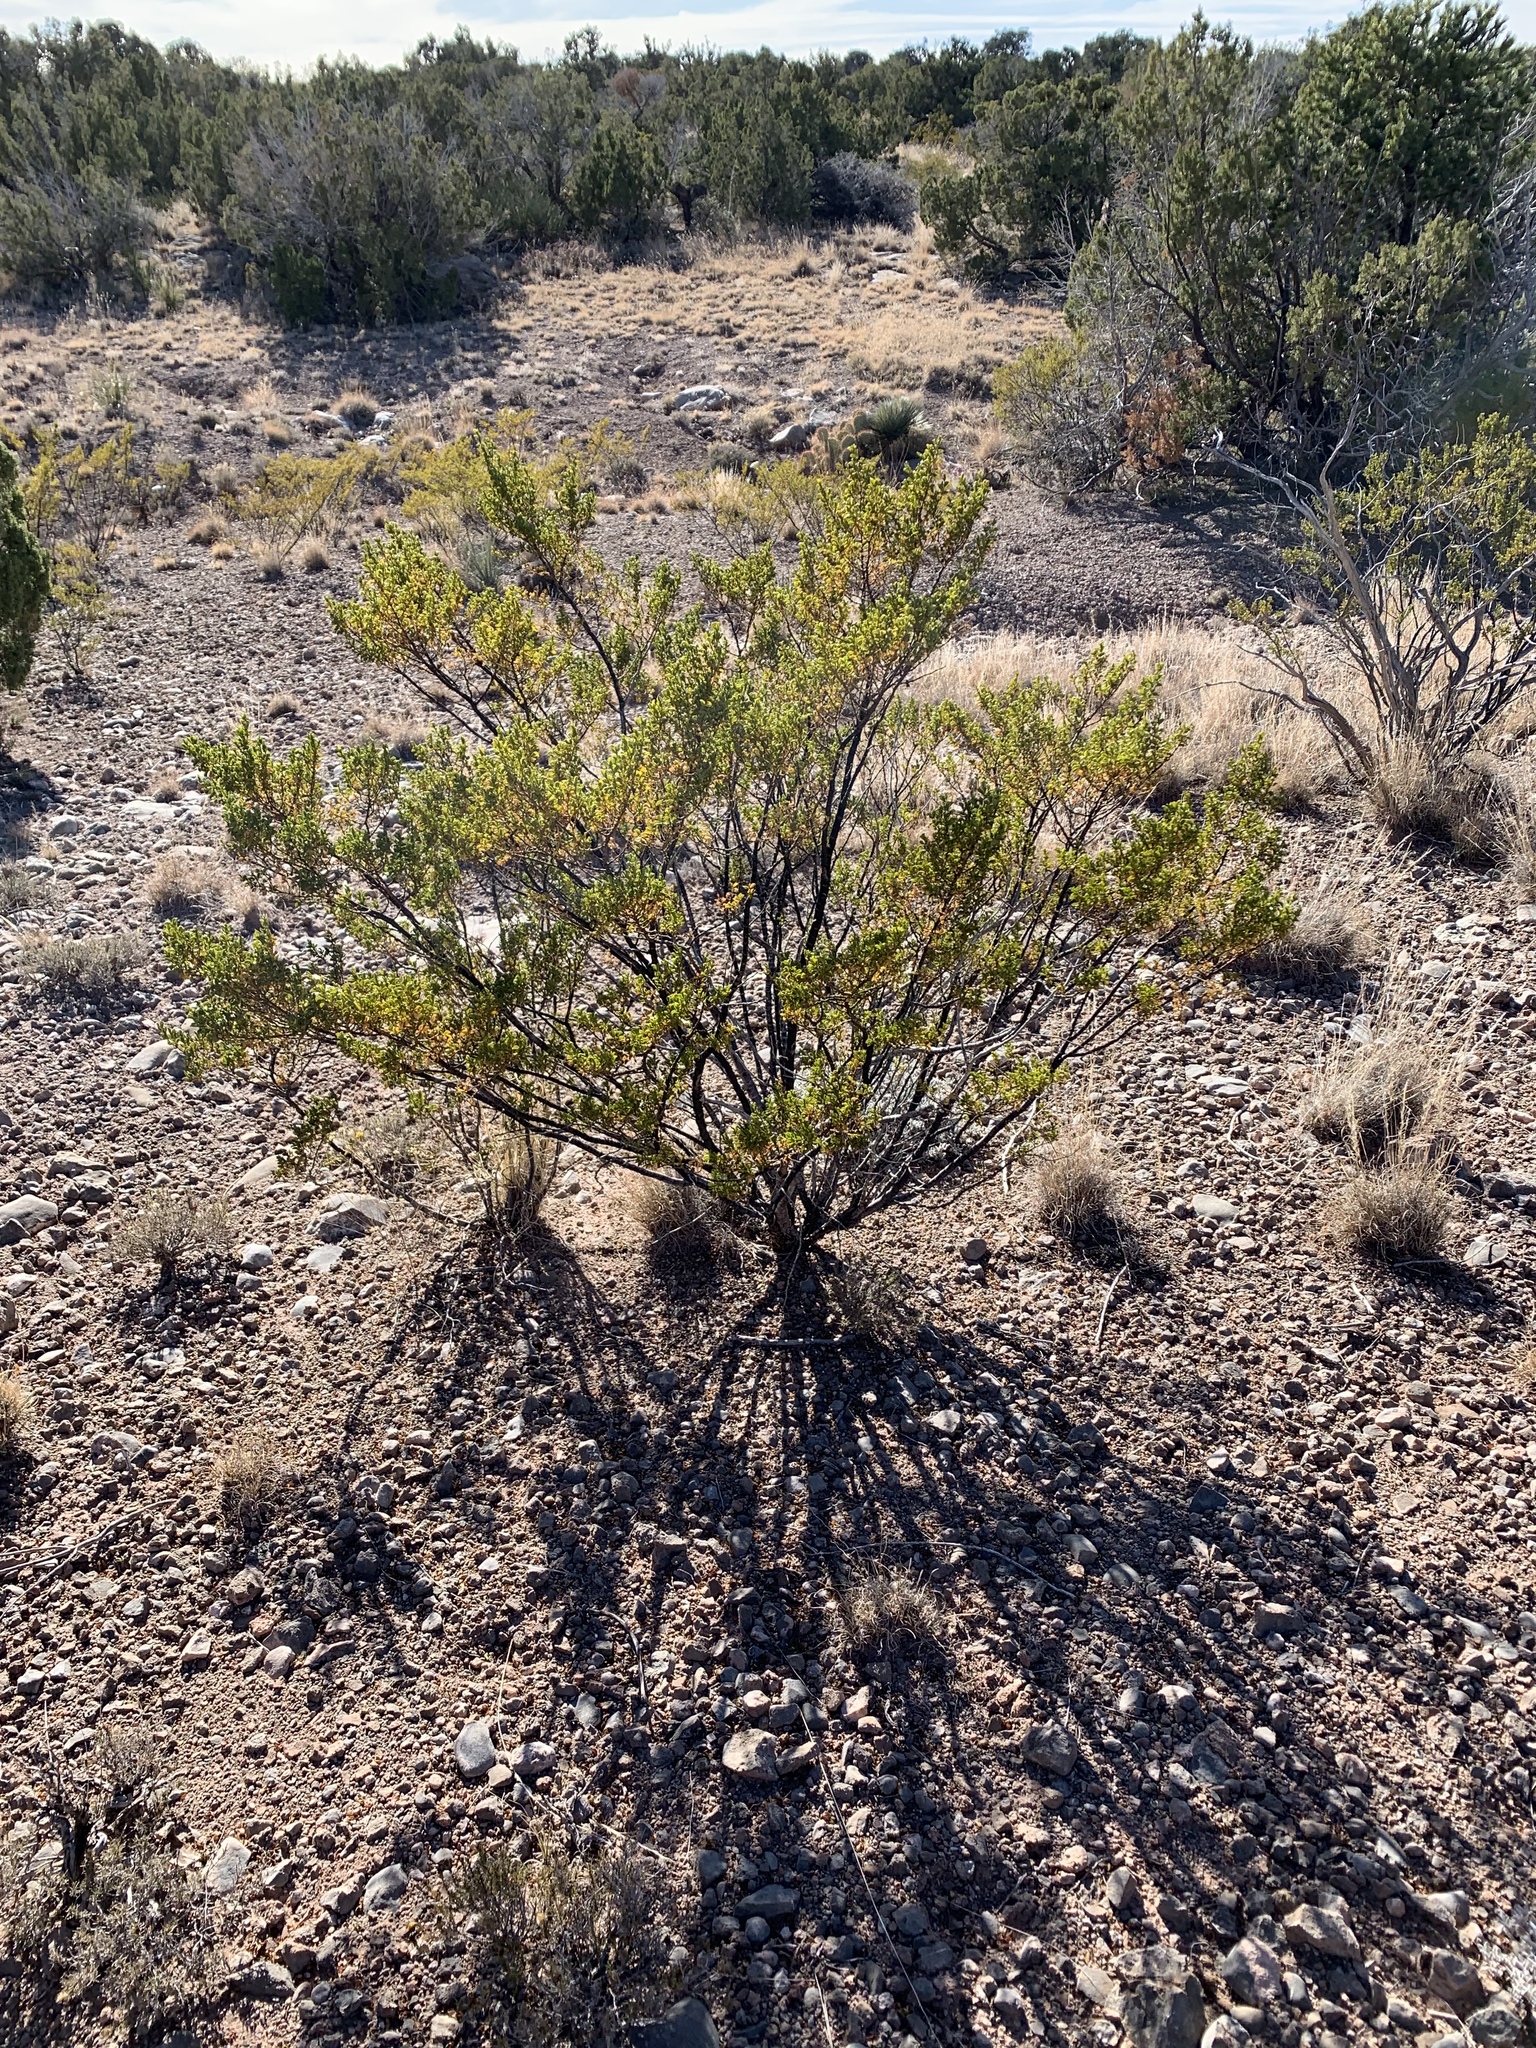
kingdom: Plantae
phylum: Tracheophyta
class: Magnoliopsida
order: Zygophyllales
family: Zygophyllaceae
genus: Larrea
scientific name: Larrea tridentata
